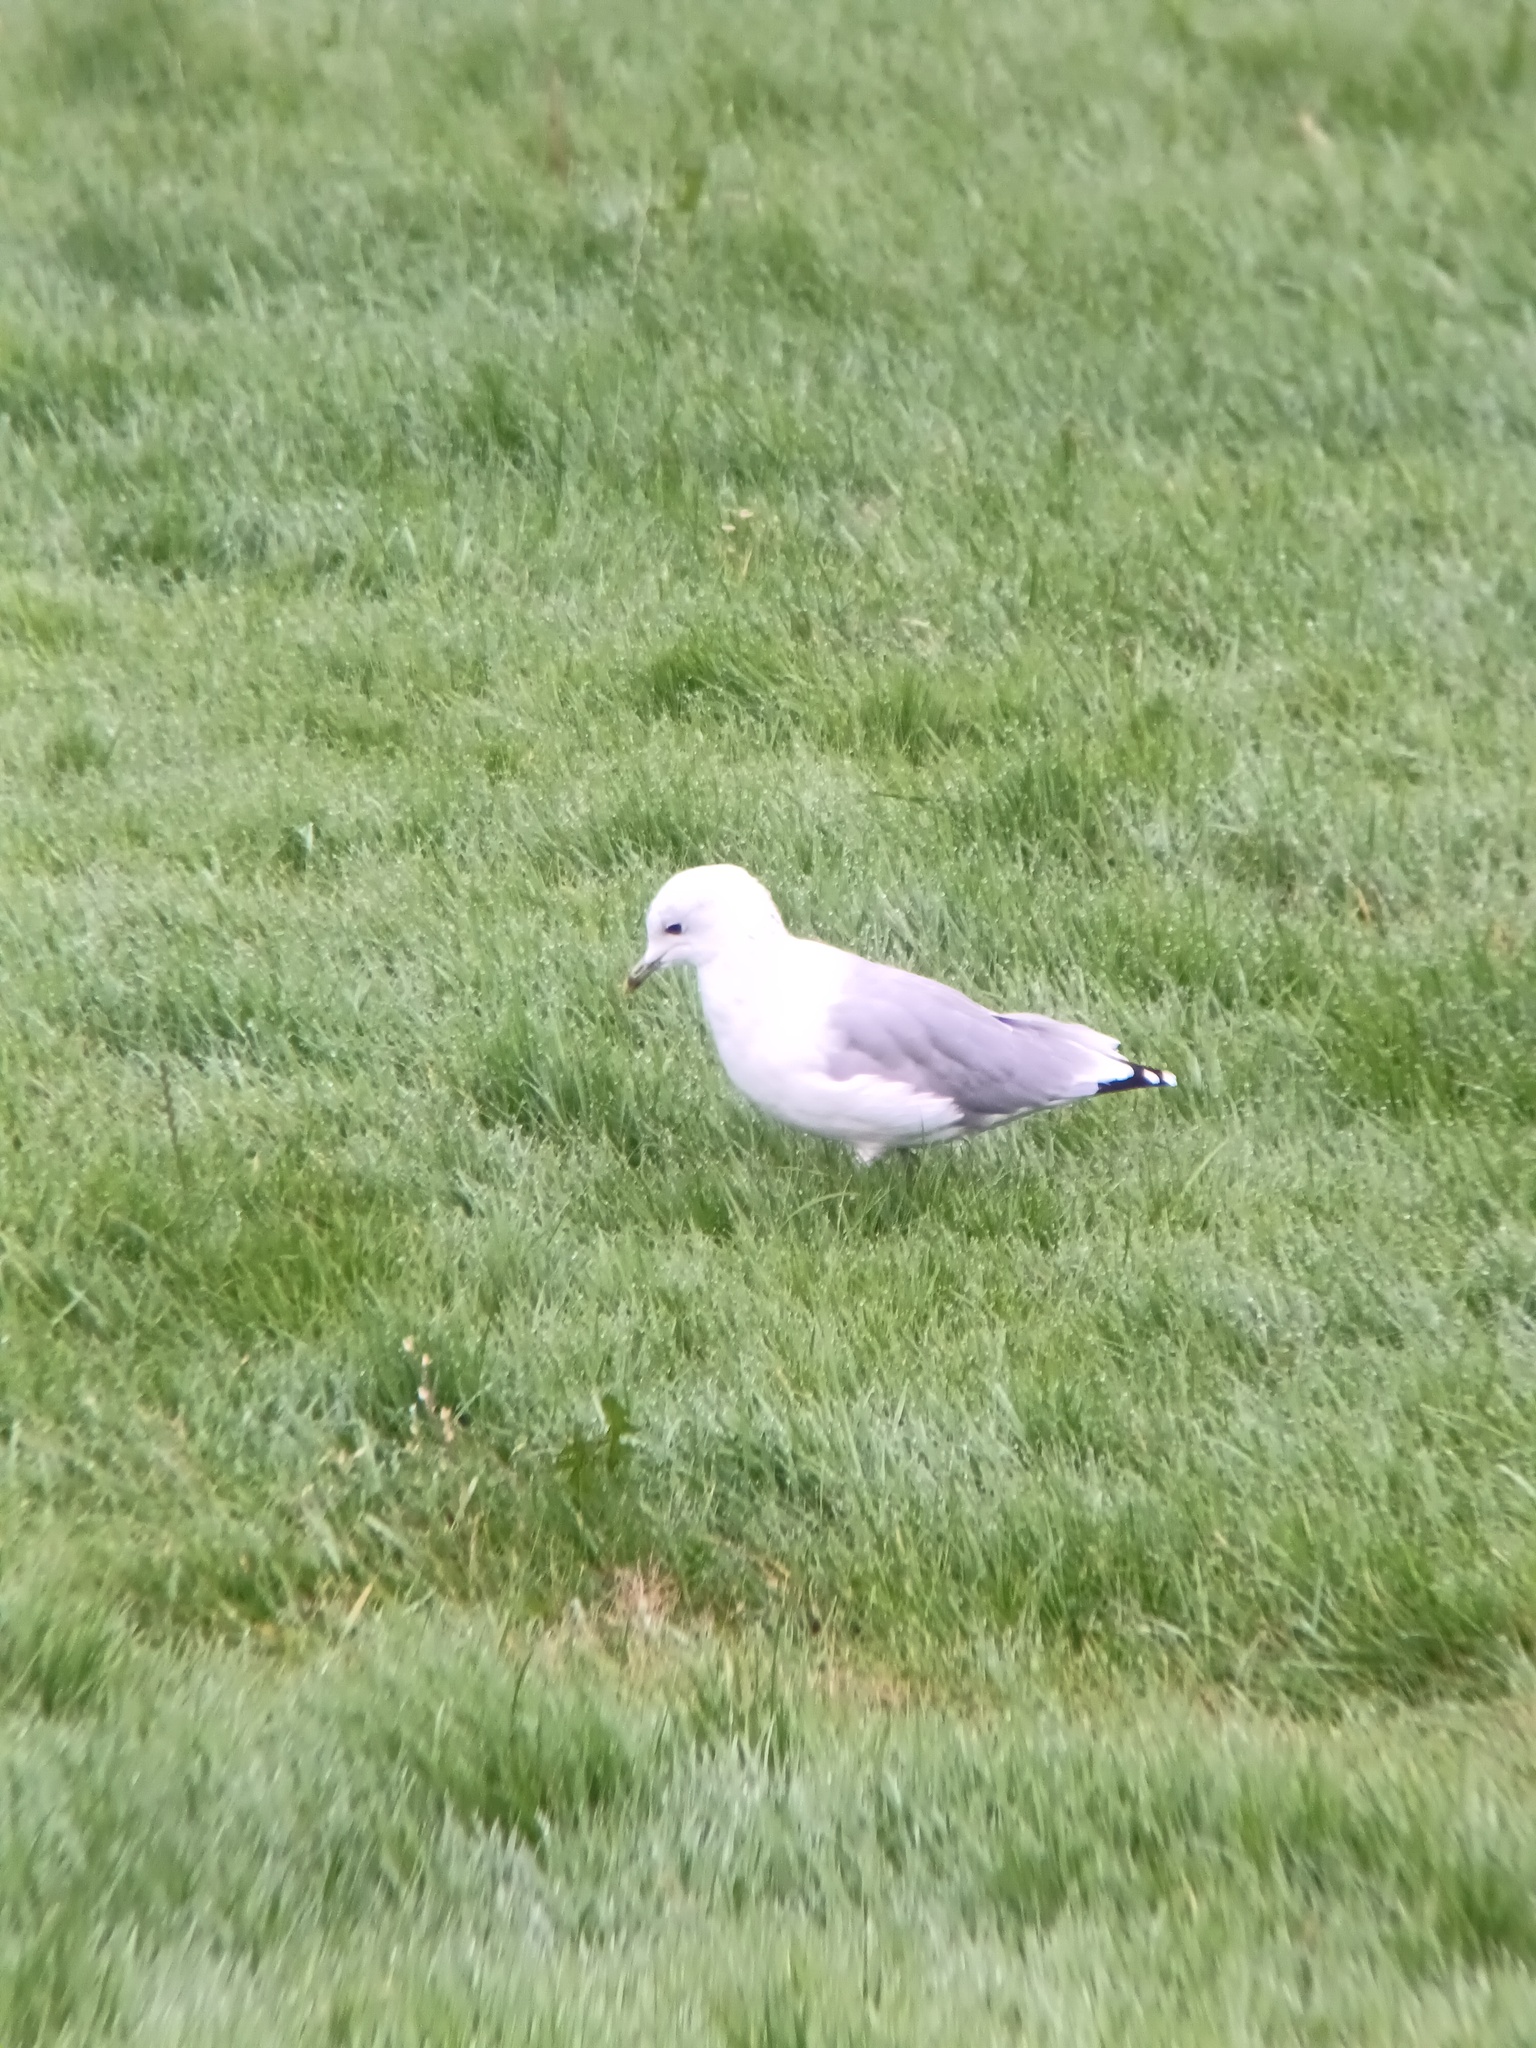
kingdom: Animalia
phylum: Chordata
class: Aves
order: Charadriiformes
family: Laridae
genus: Larus
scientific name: Larus canus
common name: Mew gull
